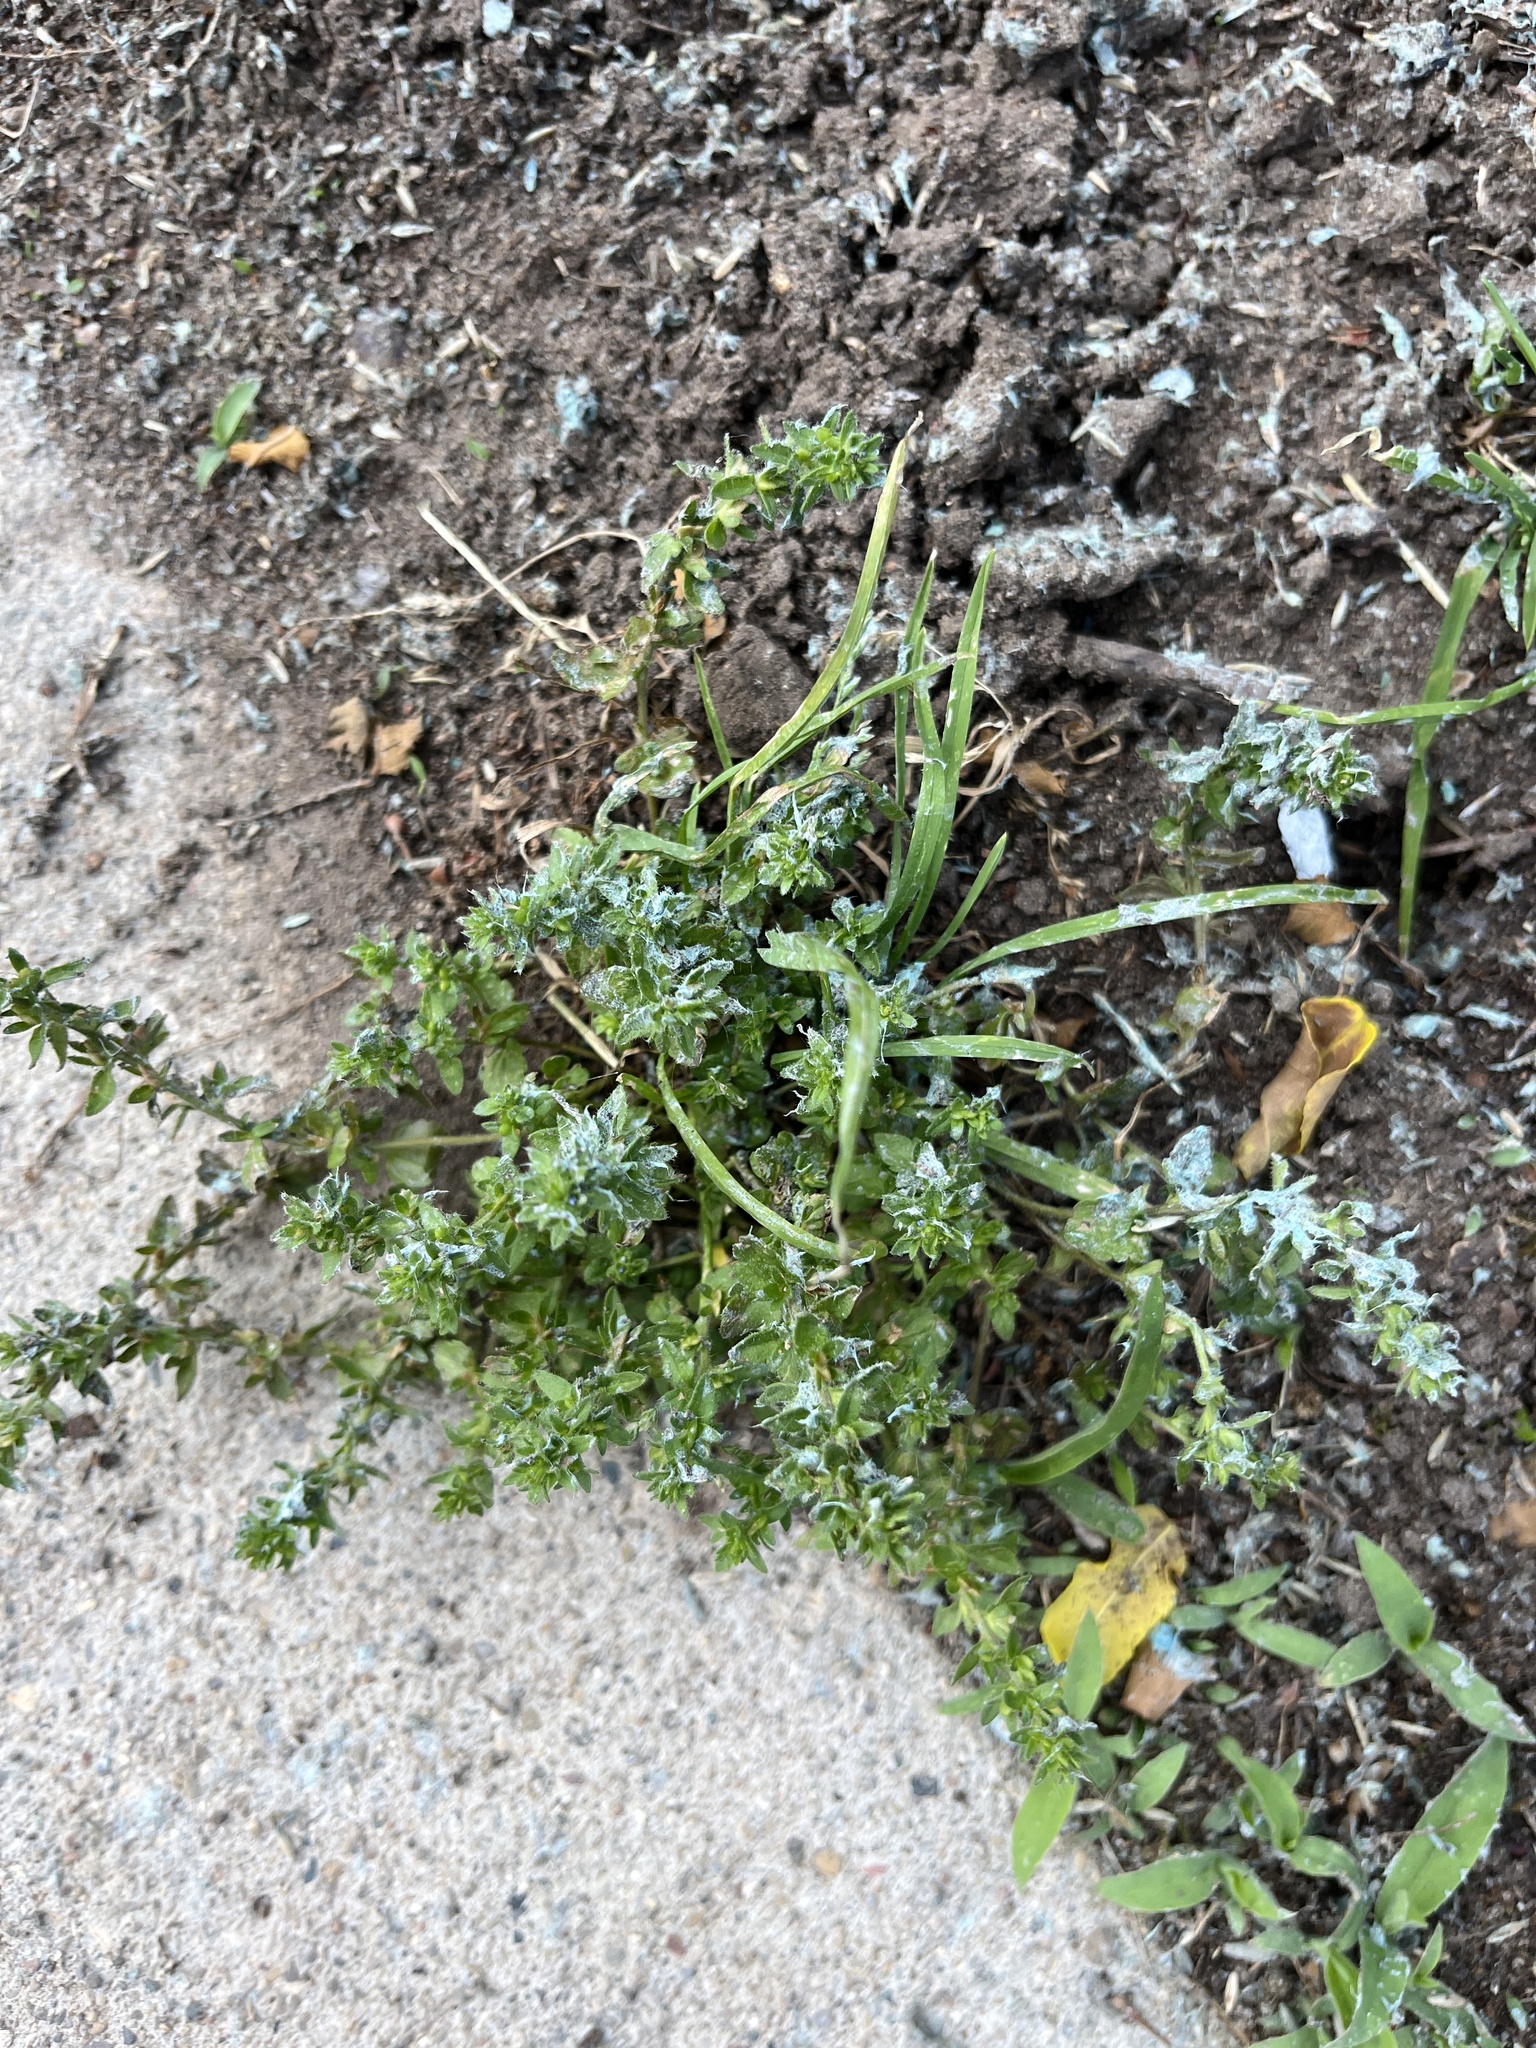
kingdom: Plantae
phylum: Tracheophyta
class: Magnoliopsida
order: Lamiales
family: Plantaginaceae
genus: Veronica
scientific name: Veronica arvensis
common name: Corn speedwell
